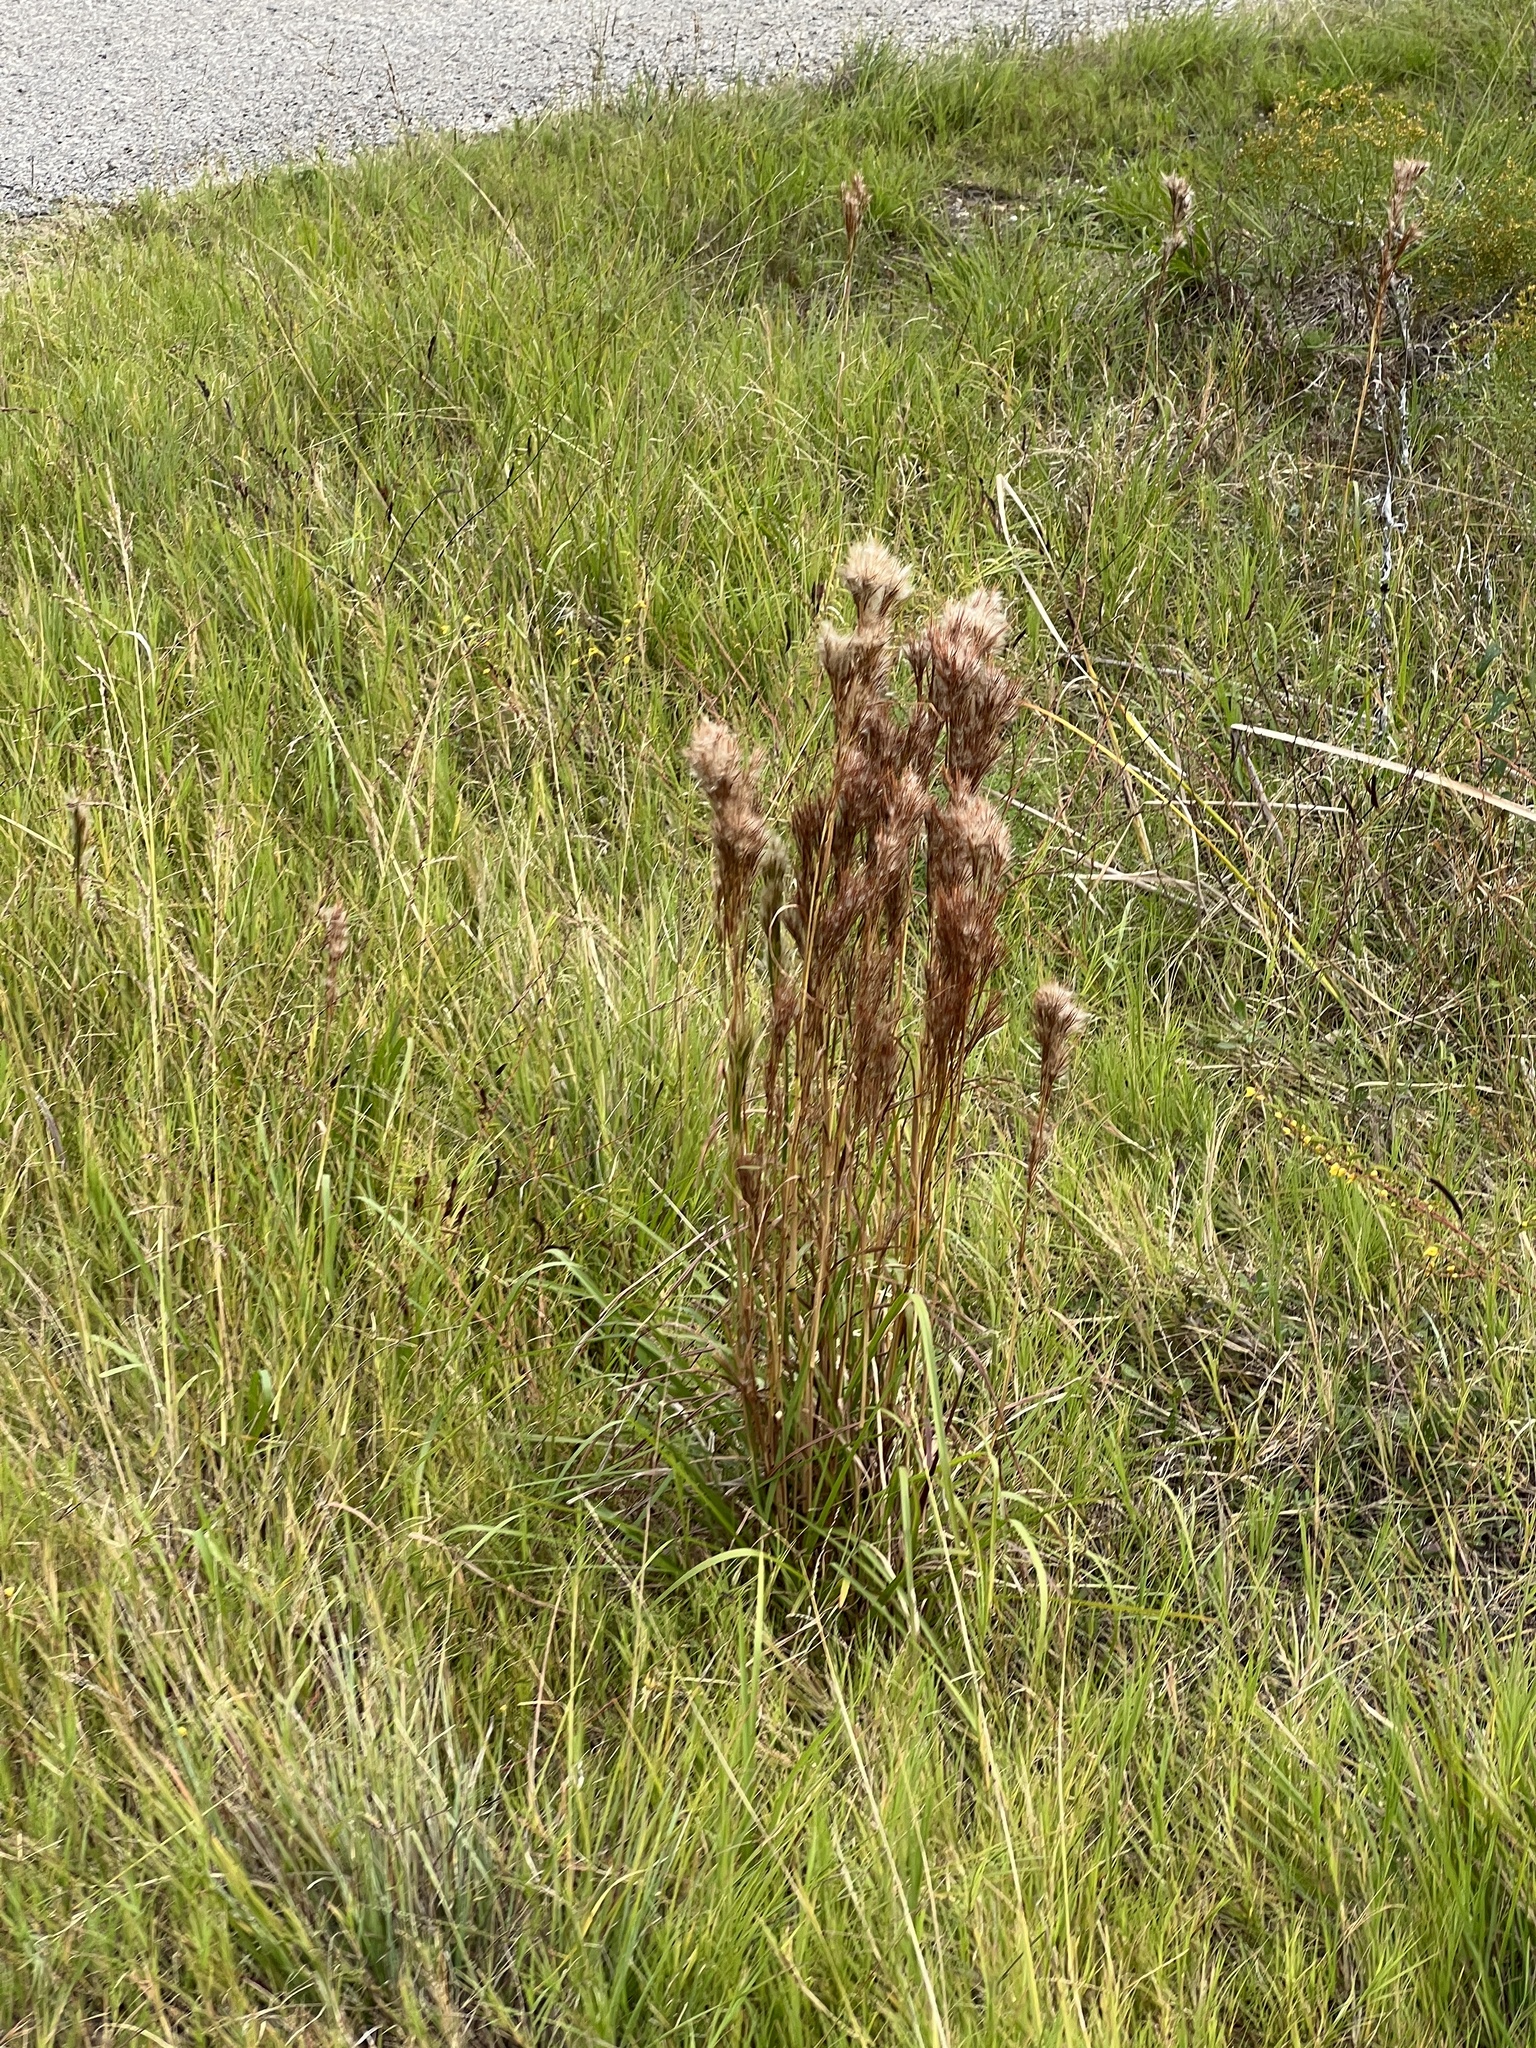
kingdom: Plantae
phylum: Tracheophyta
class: Liliopsida
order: Poales
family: Poaceae
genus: Andropogon
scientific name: Andropogon tenuispatheus
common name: Bushy bluestem
